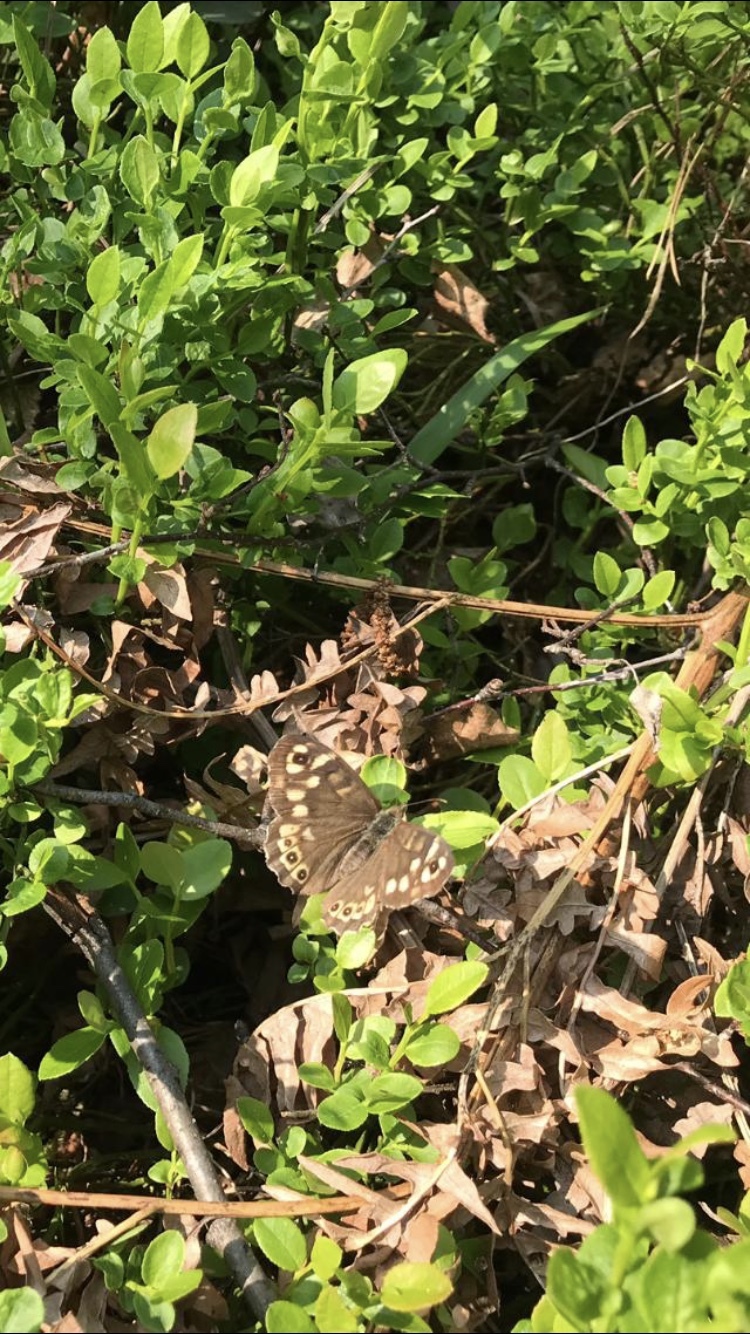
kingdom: Animalia
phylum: Arthropoda
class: Insecta
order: Lepidoptera
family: Nymphalidae
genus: Pararge
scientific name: Pararge aegeria
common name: Speckled wood
